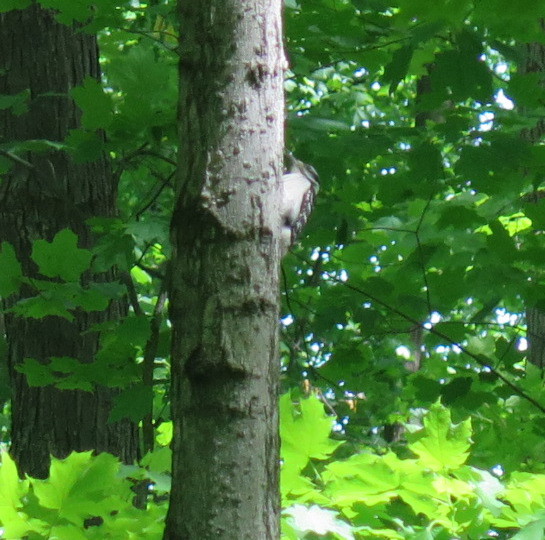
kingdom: Animalia
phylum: Chordata
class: Aves
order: Piciformes
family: Picidae
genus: Leuconotopicus
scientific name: Leuconotopicus villosus
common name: Hairy woodpecker
